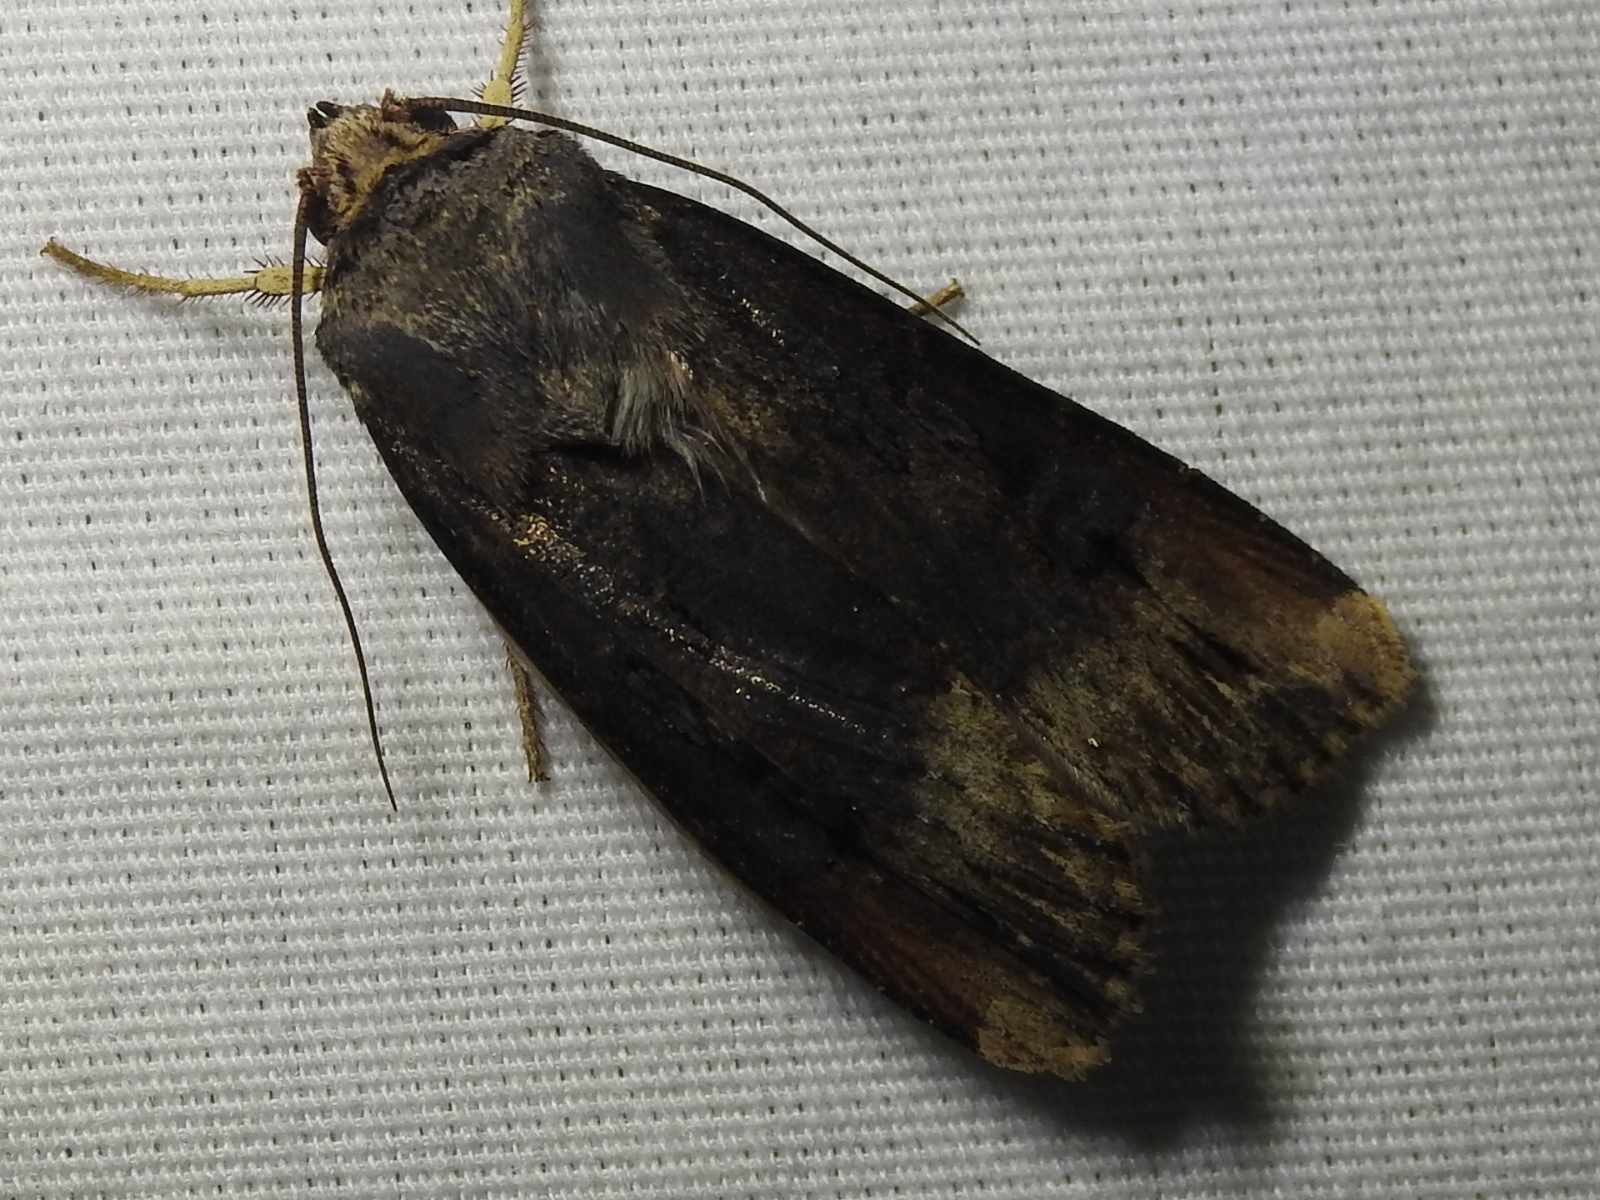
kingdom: Animalia
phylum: Arthropoda
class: Insecta
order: Lepidoptera
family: Noctuidae
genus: Agrotis
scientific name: Agrotis ipsilon
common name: Dark sword-grass
